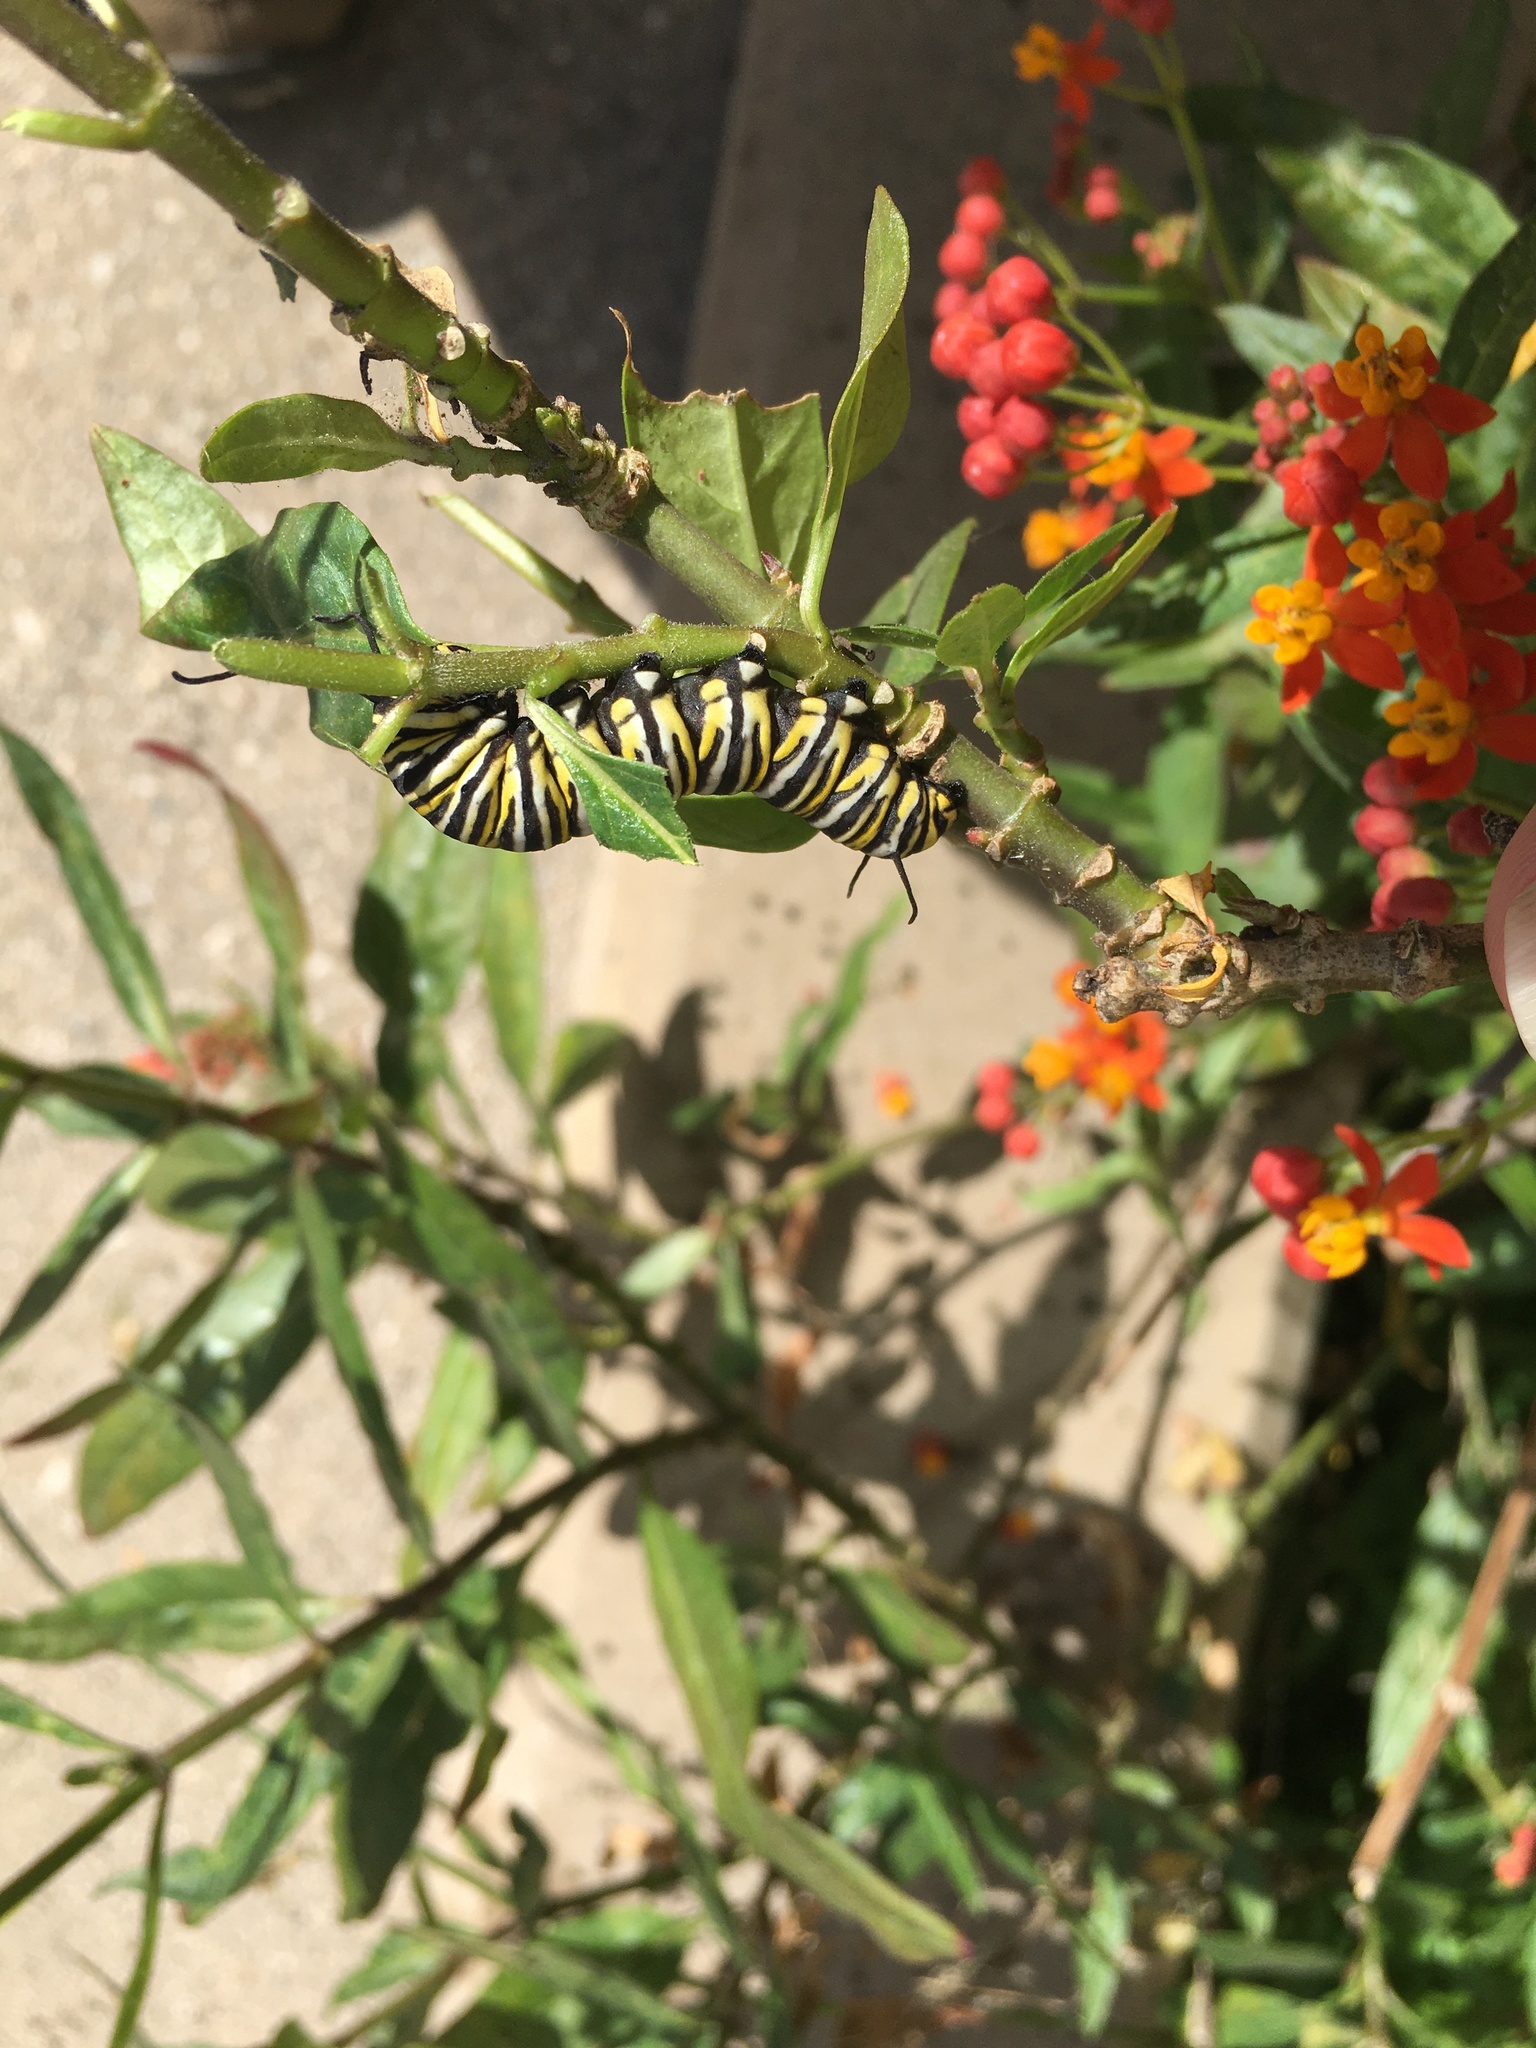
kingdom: Animalia
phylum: Arthropoda
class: Insecta
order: Lepidoptera
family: Nymphalidae
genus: Danaus
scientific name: Danaus plexippus
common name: Monarch
